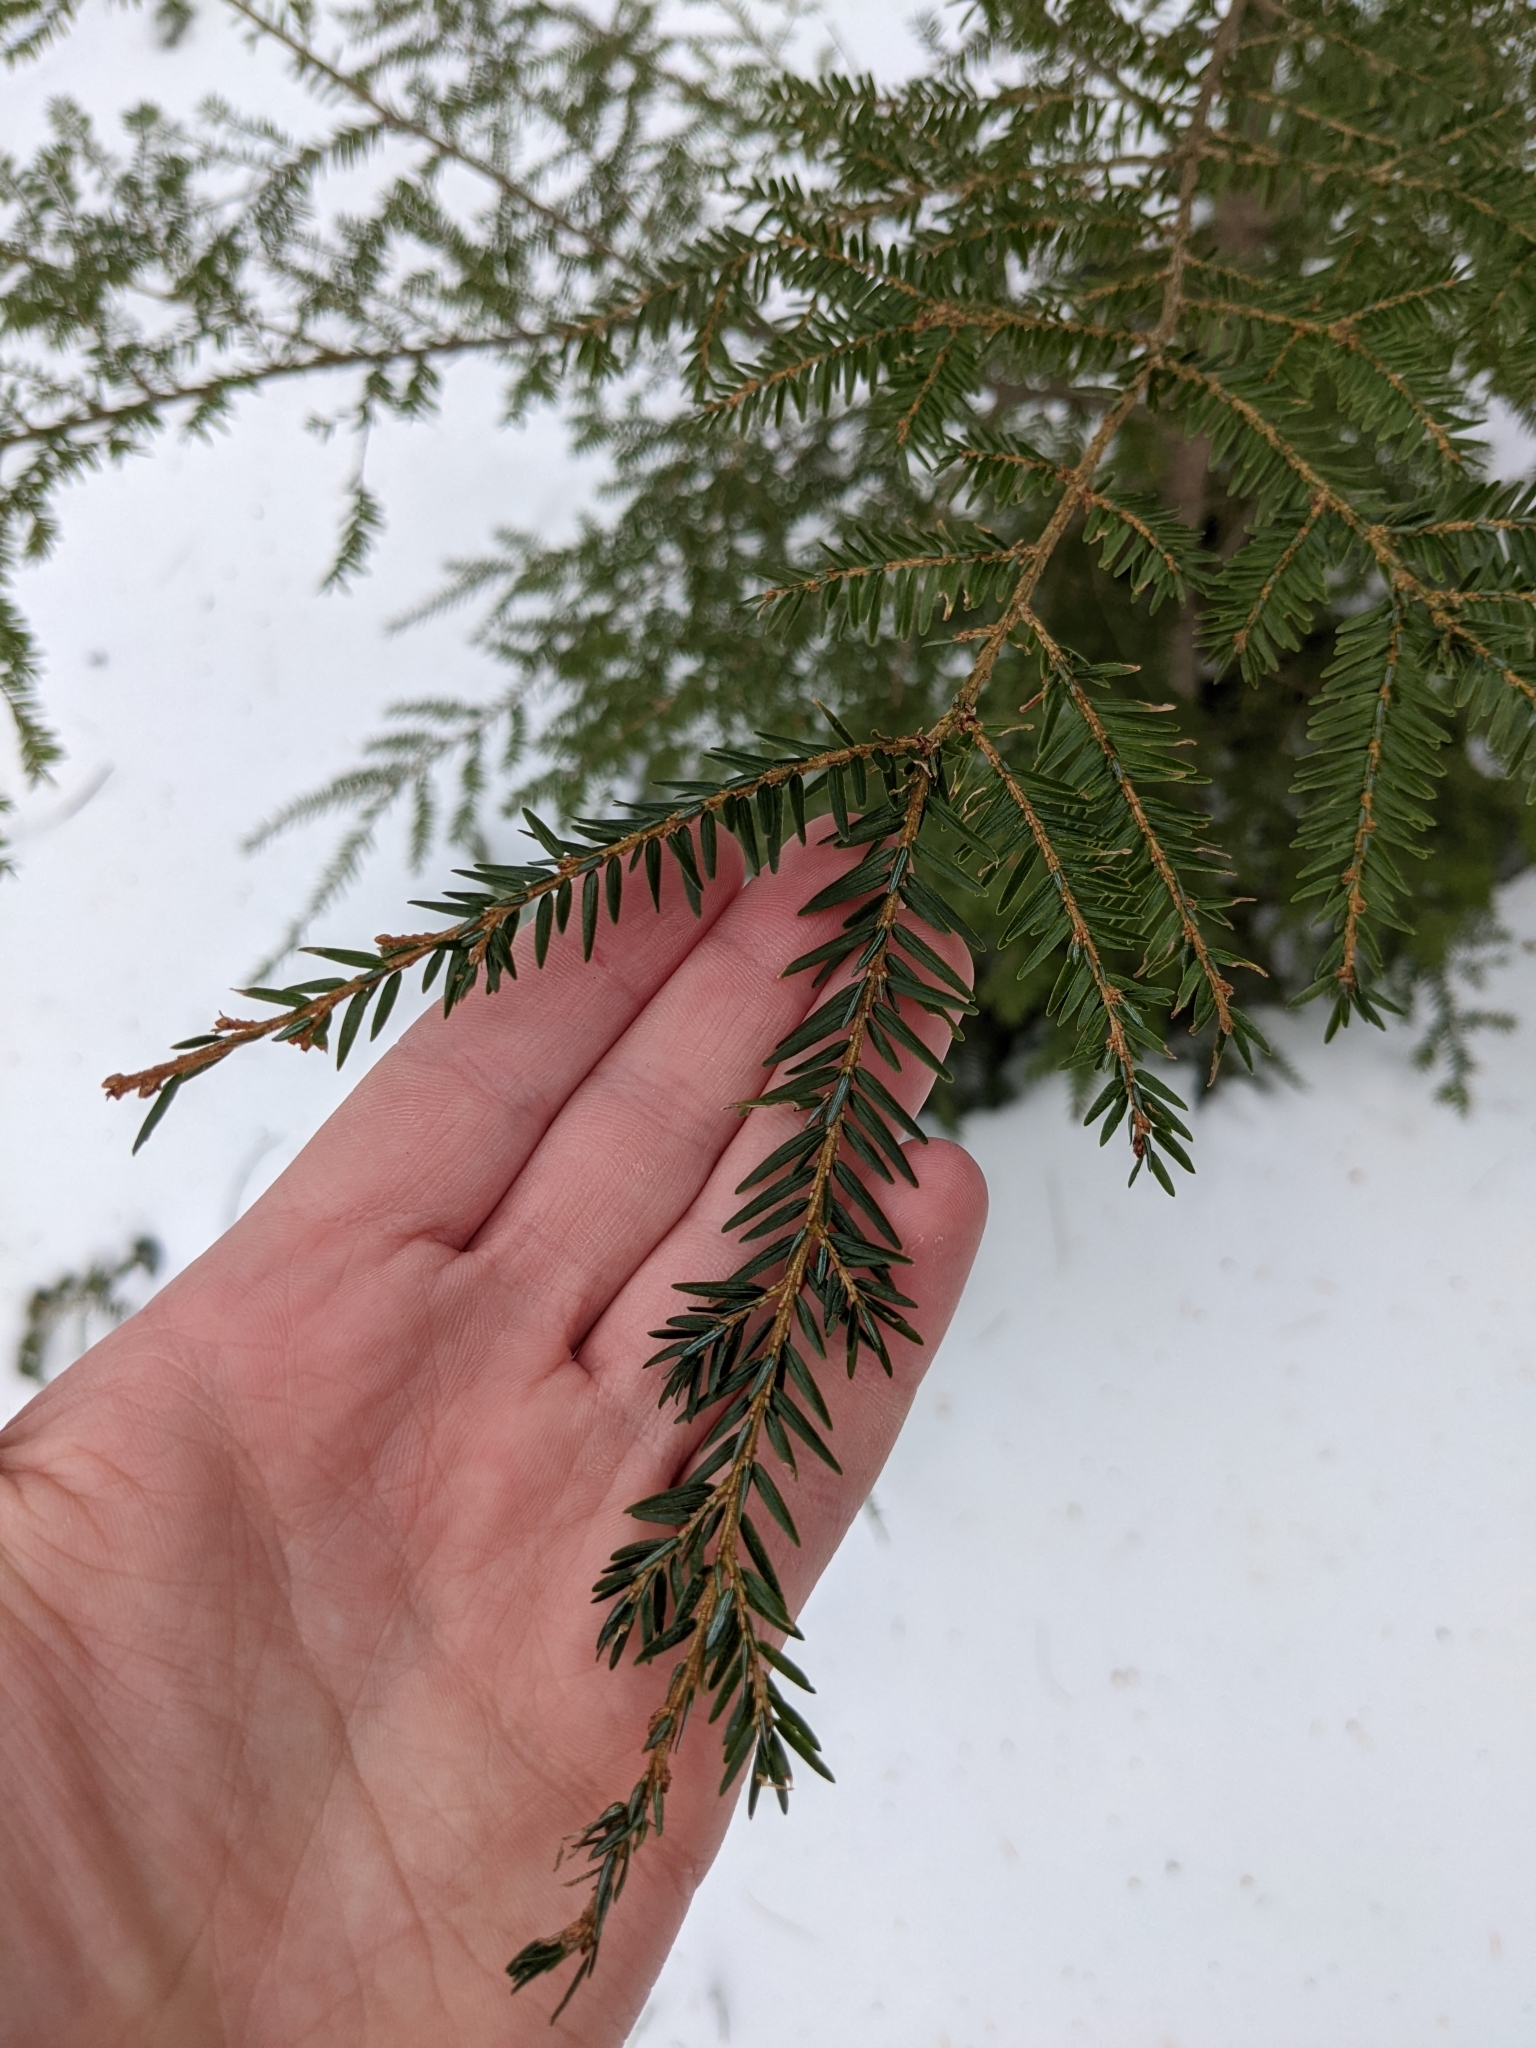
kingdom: Plantae
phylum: Tracheophyta
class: Pinopsida
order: Pinales
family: Pinaceae
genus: Tsuga
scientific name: Tsuga canadensis
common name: Eastern hemlock
